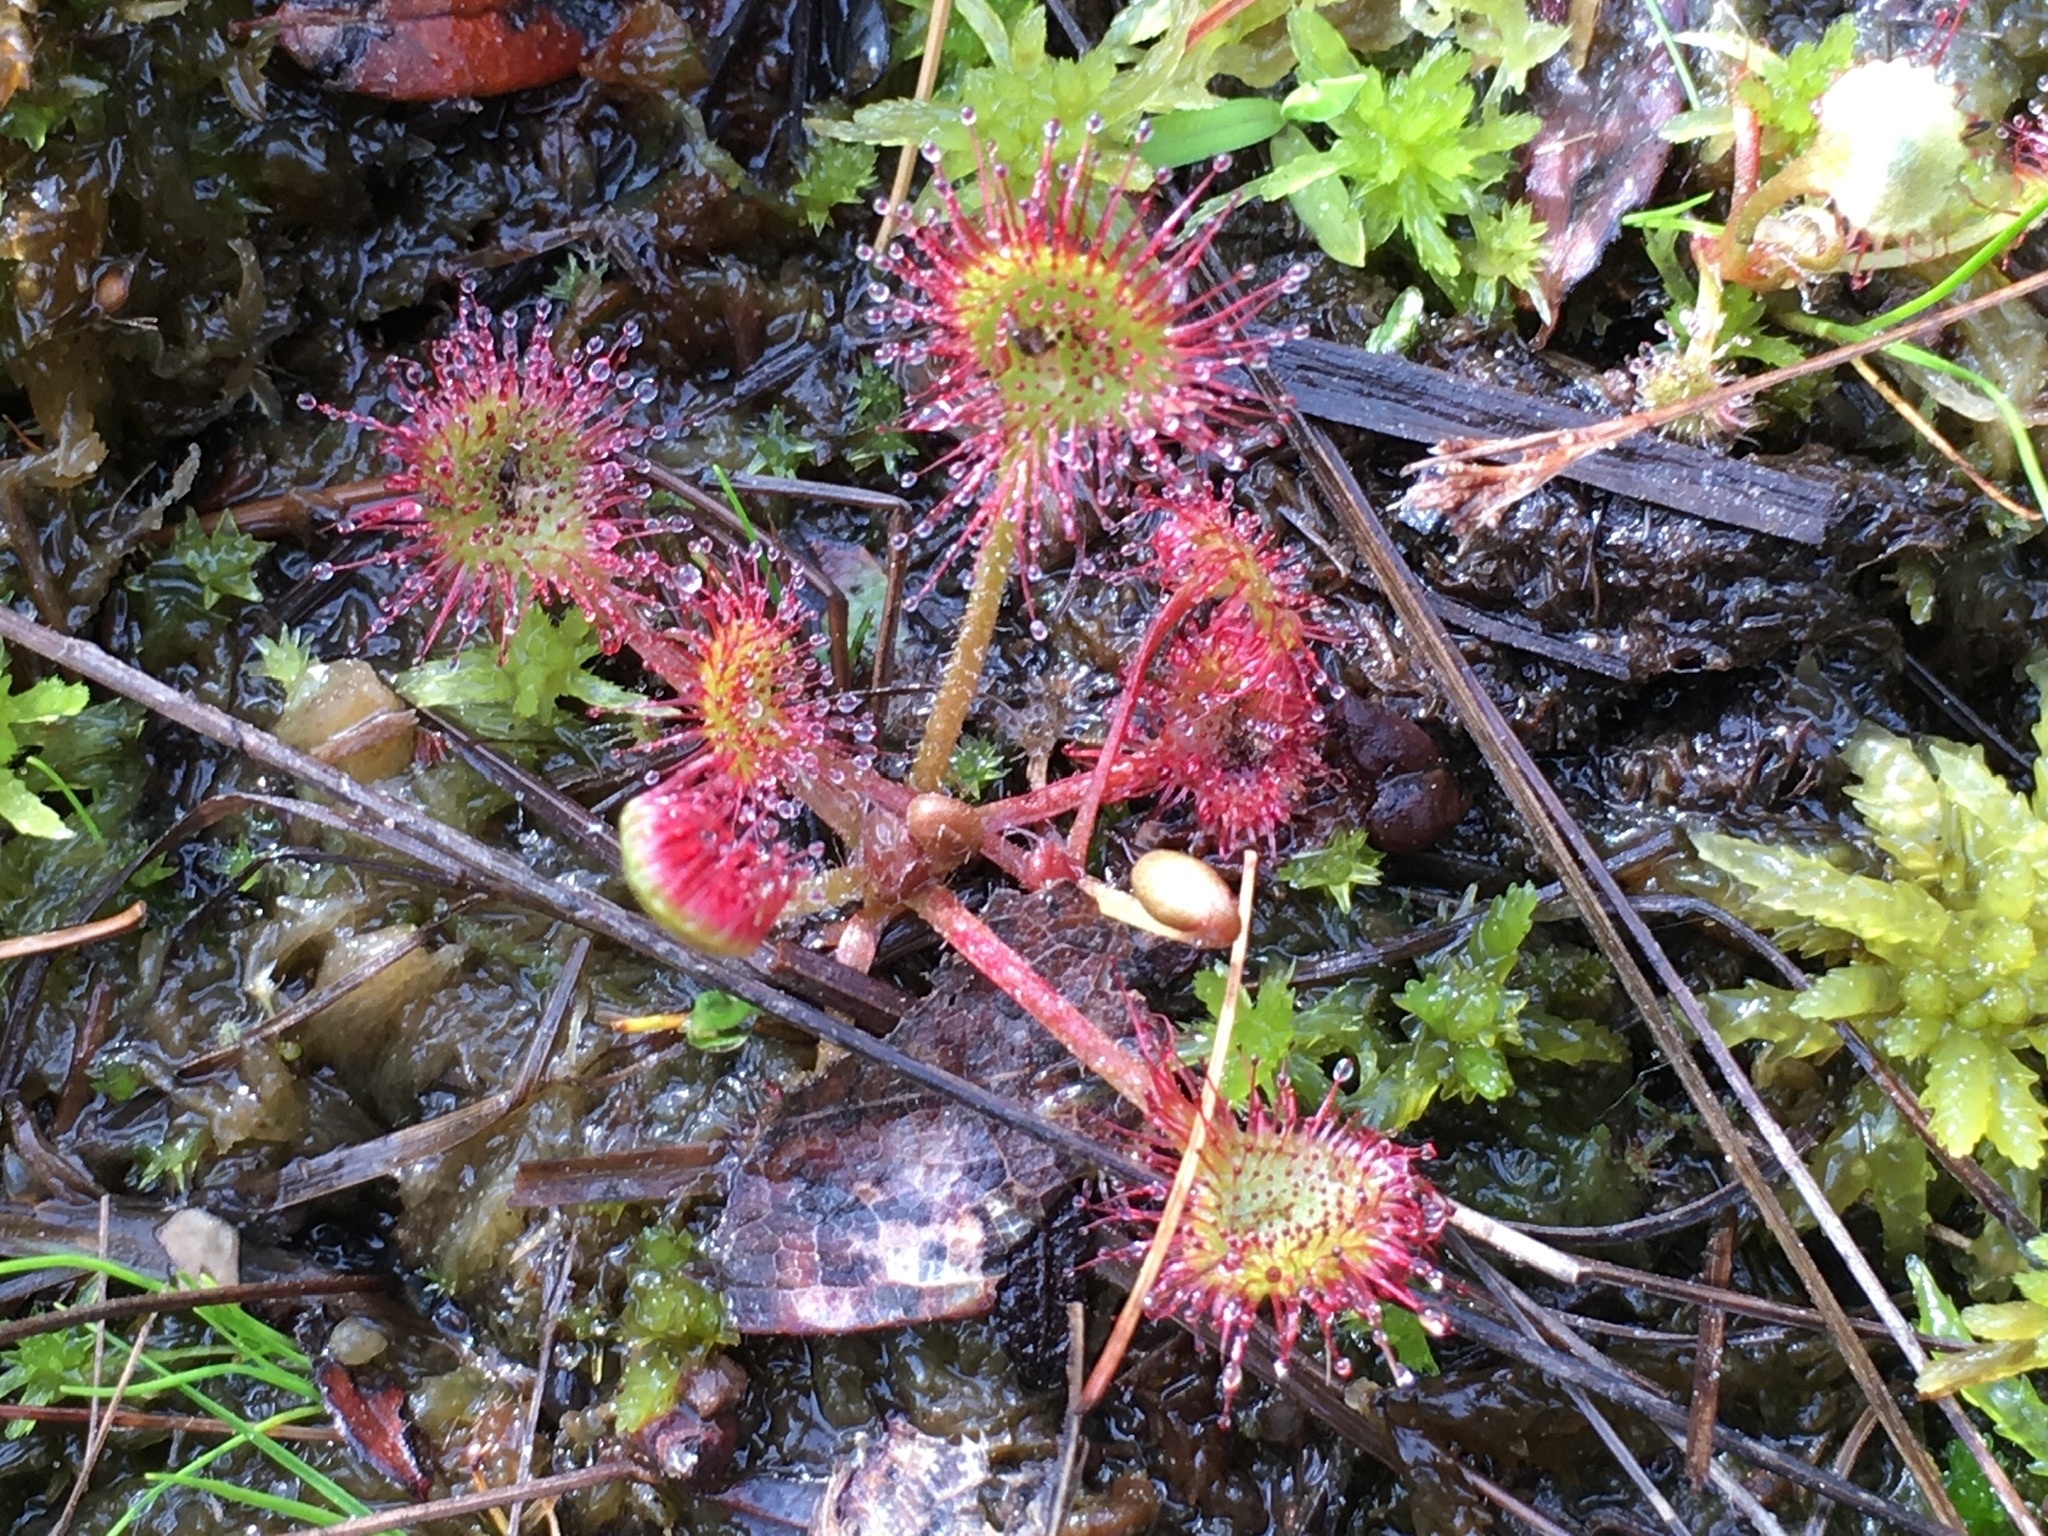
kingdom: Plantae
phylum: Tracheophyta
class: Magnoliopsida
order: Caryophyllales
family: Droseraceae
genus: Drosera
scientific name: Drosera rotundifolia
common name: Round-leaved sundew
